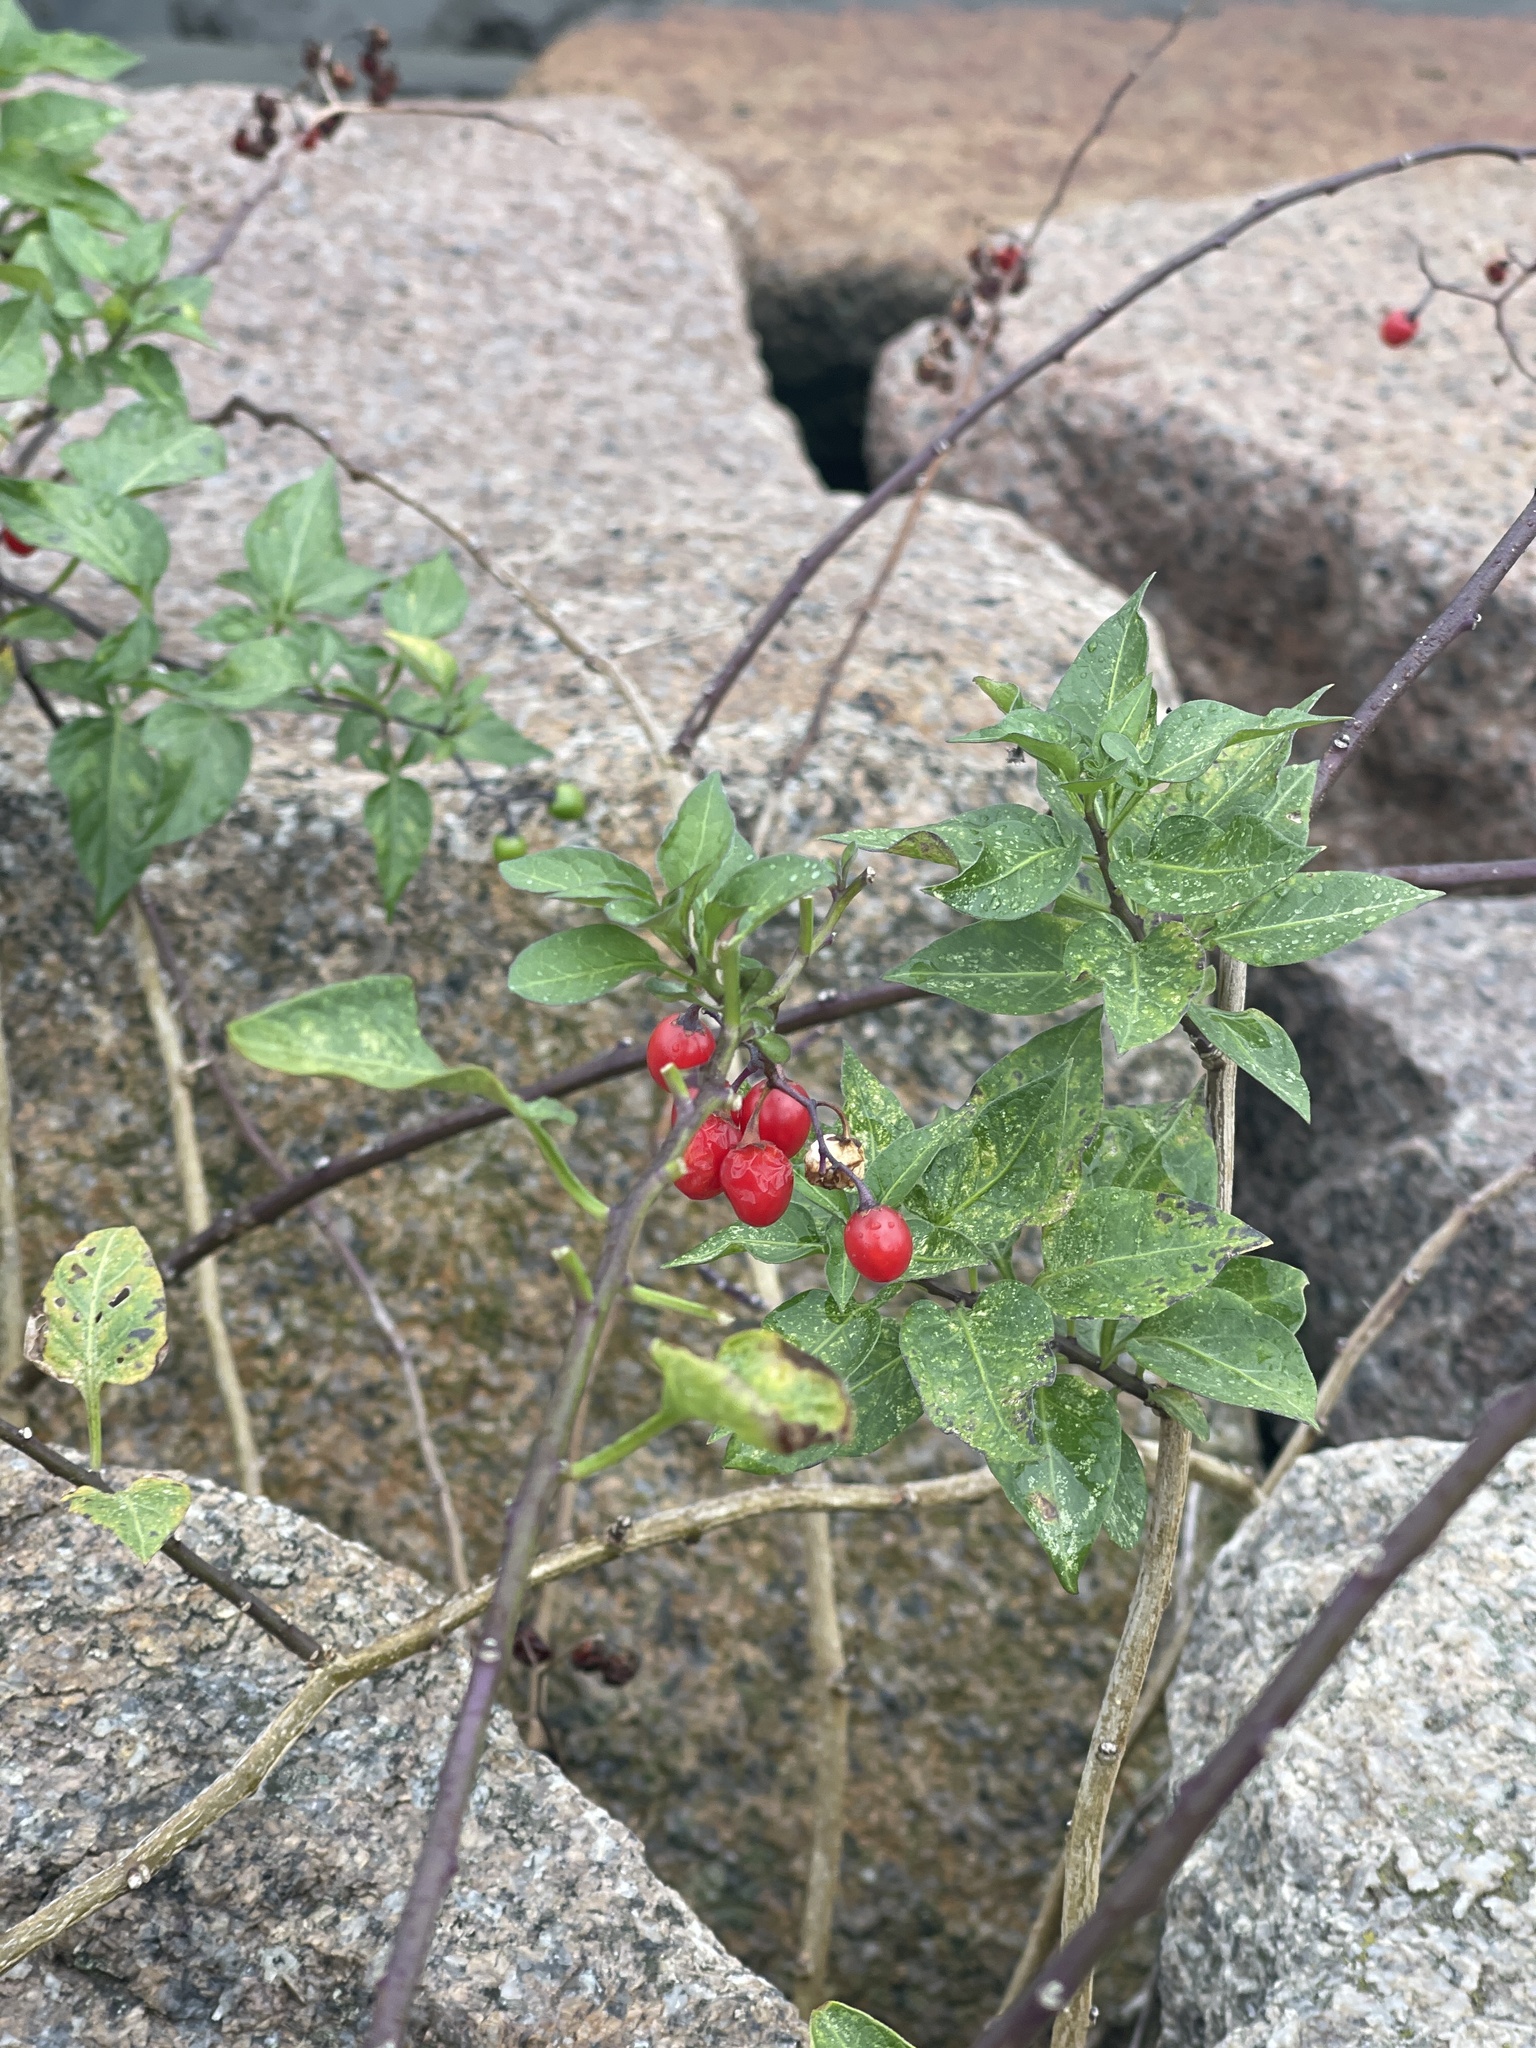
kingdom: Plantae
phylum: Tracheophyta
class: Magnoliopsida
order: Solanales
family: Solanaceae
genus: Solanum
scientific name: Solanum dulcamara
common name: Climbing nightshade
